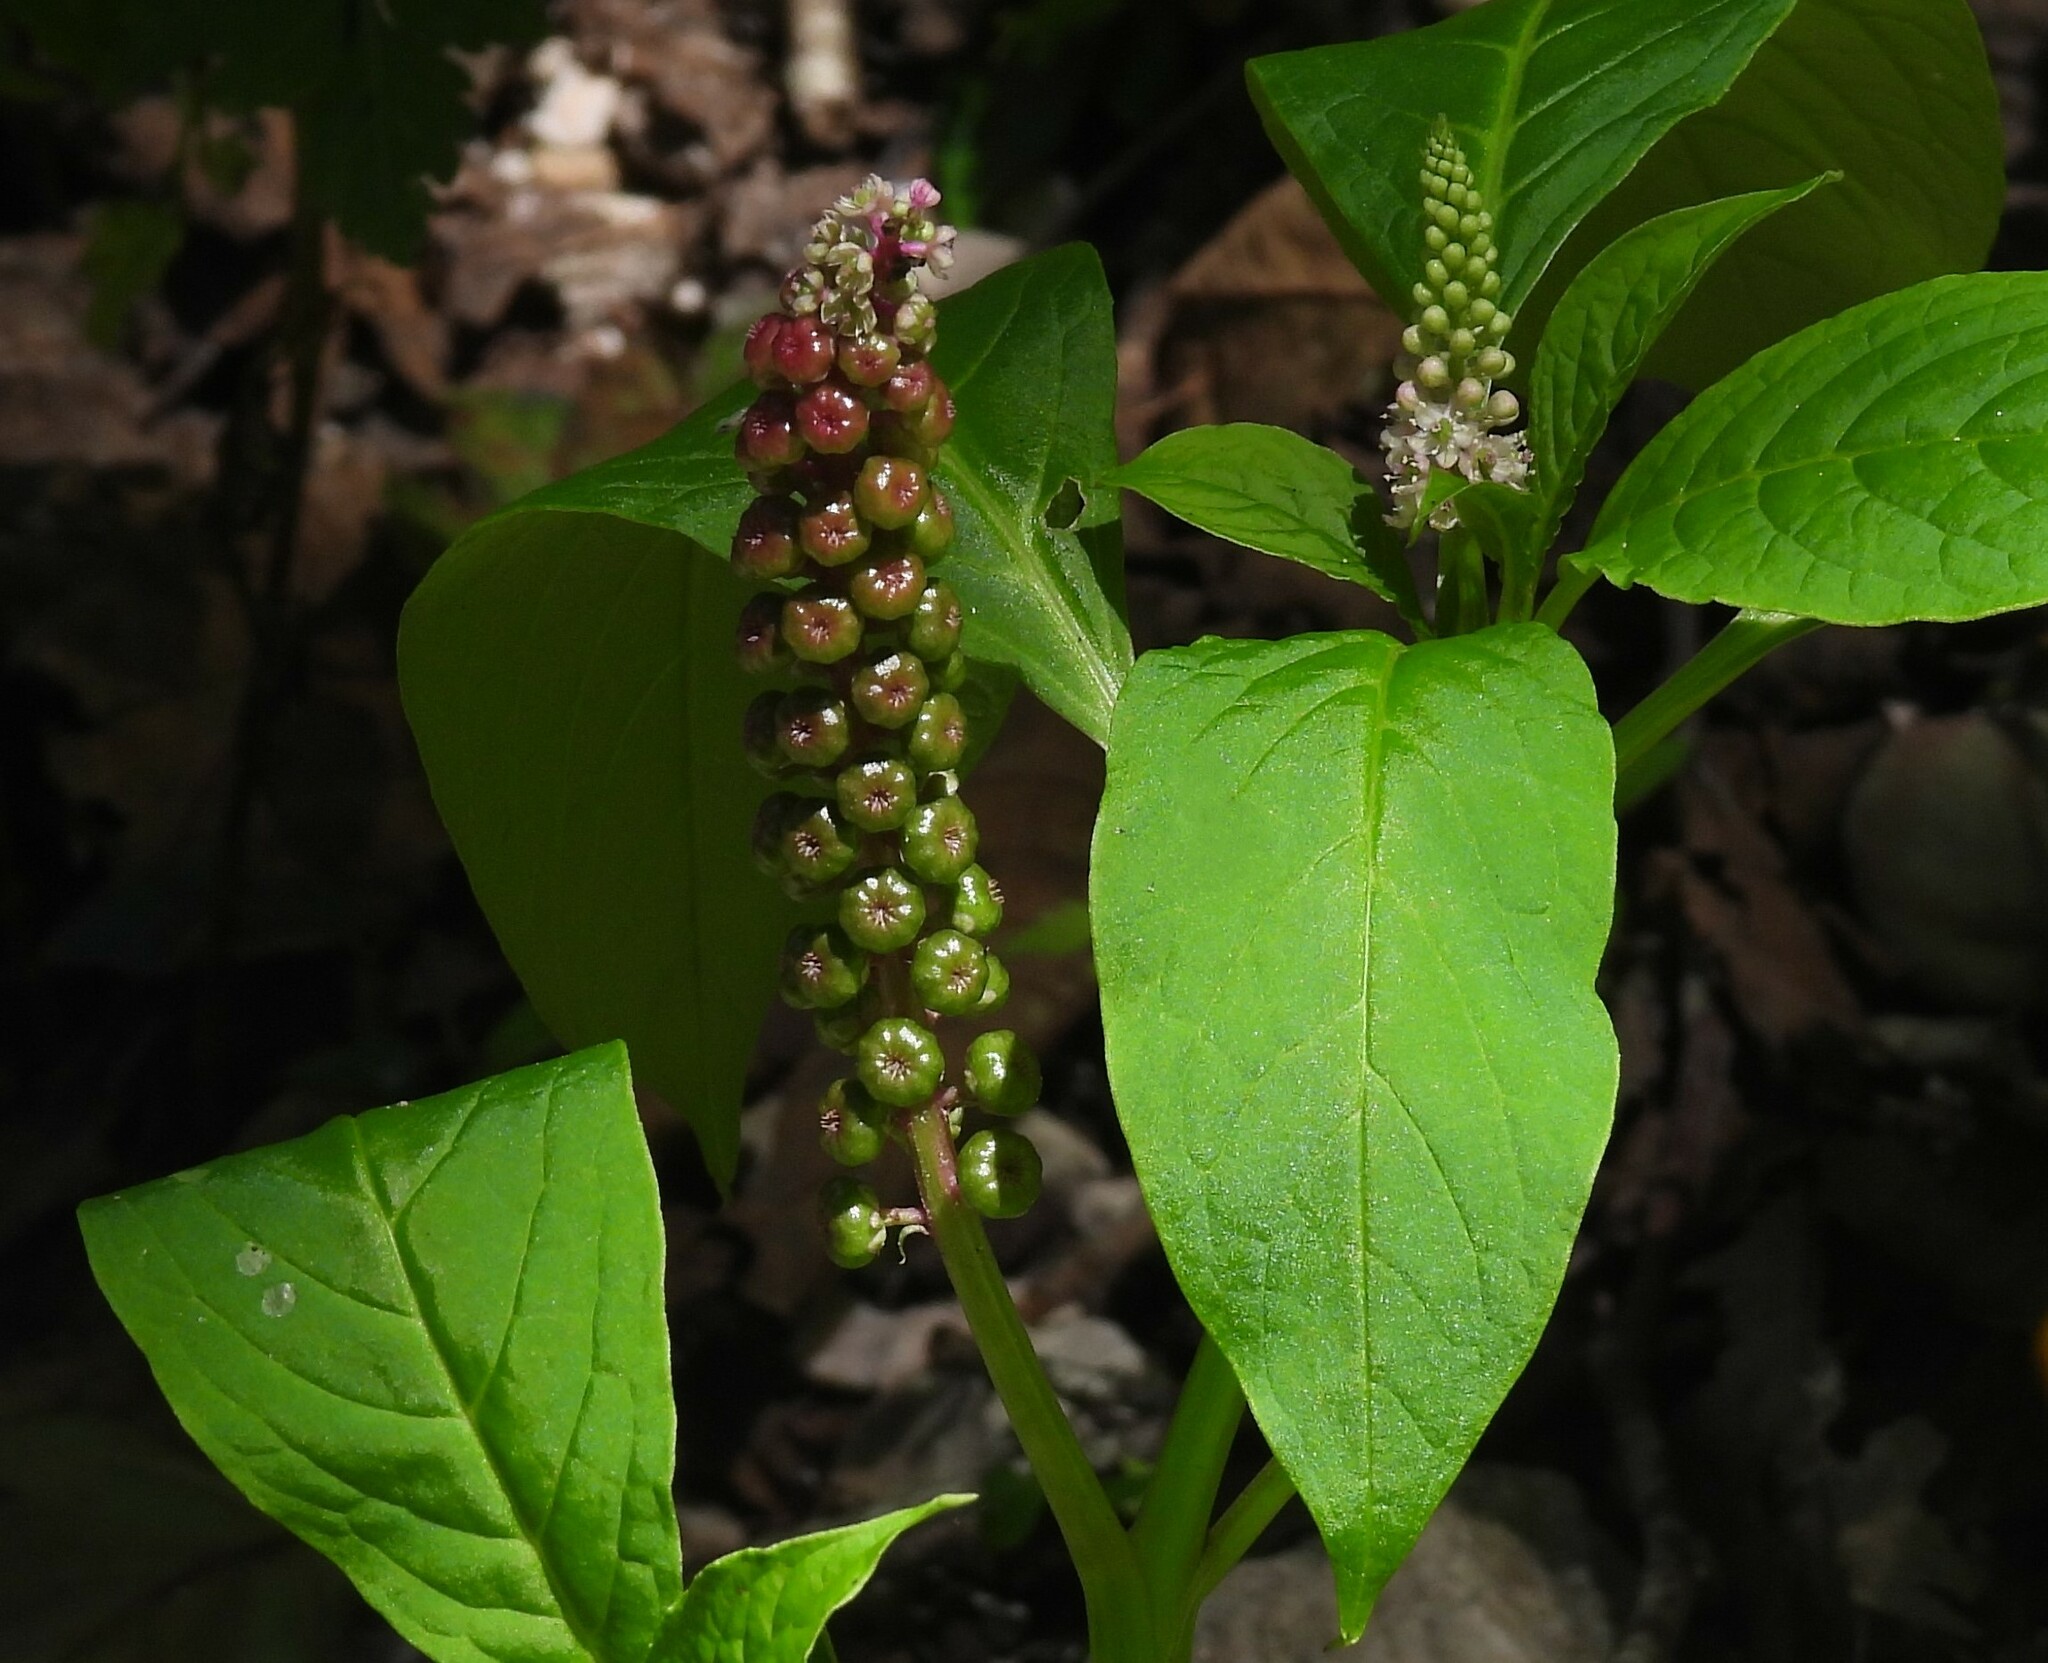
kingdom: Plantae
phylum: Tracheophyta
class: Magnoliopsida
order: Caryophyllales
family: Phytolaccaceae
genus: Phytolacca
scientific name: Phytolacca bogotensis
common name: Southern pokeweed
